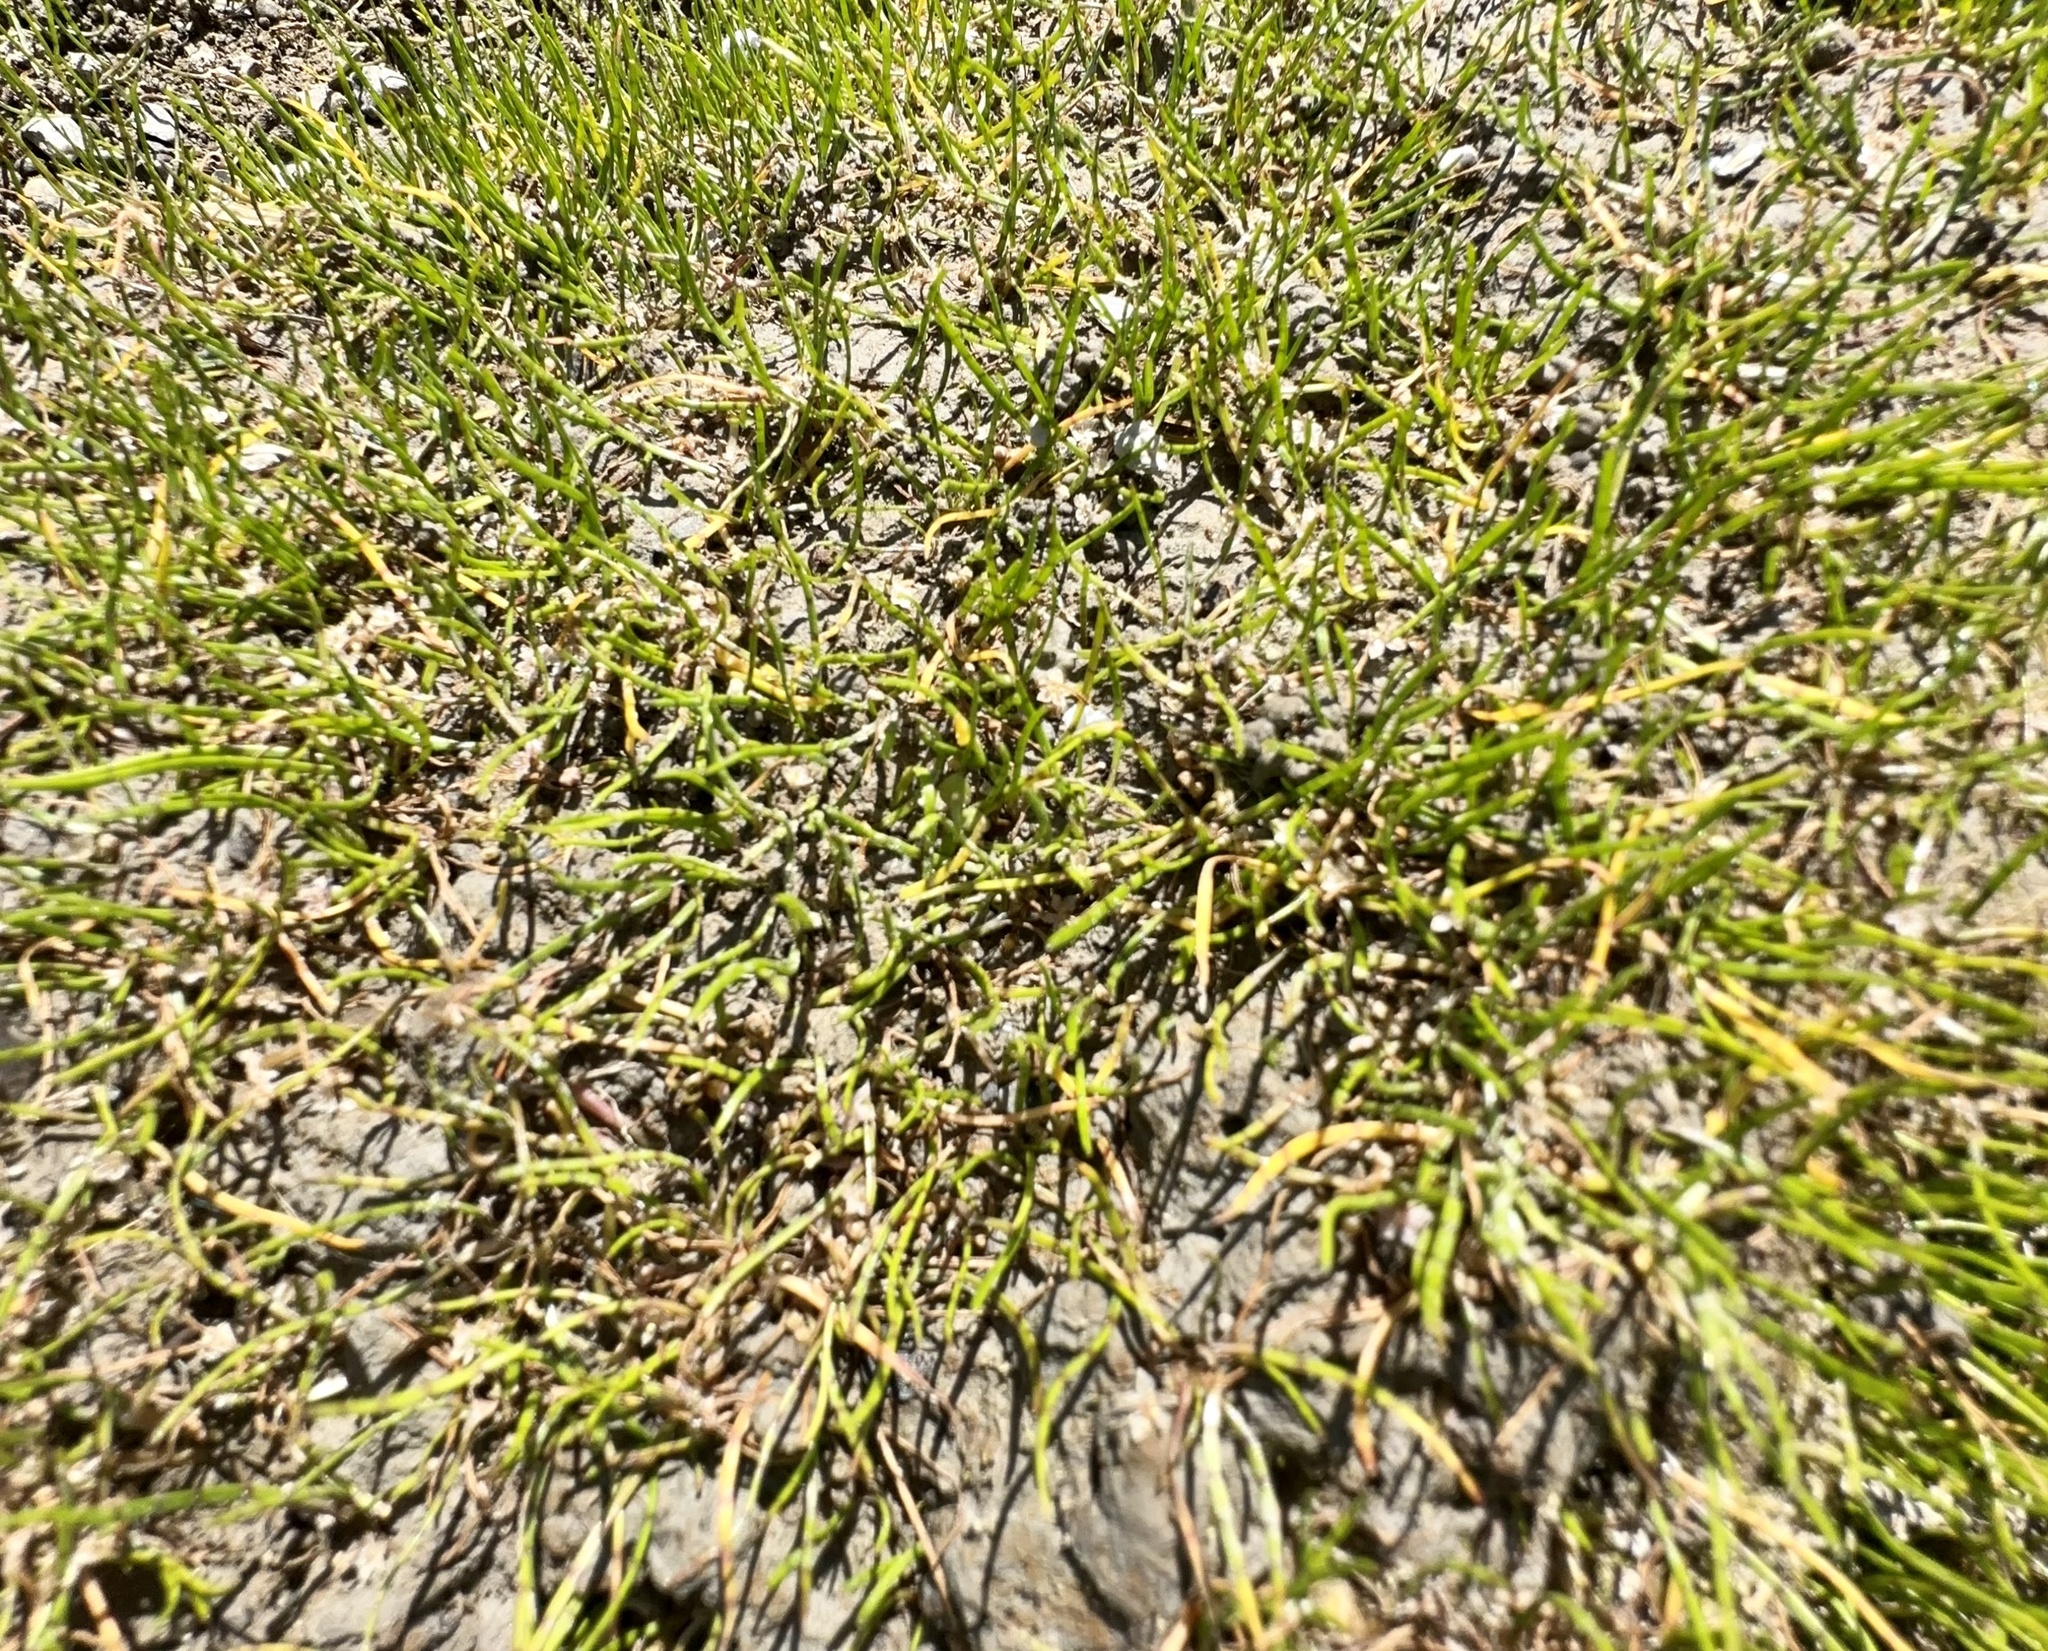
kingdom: Plantae
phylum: Tracheophyta
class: Magnoliopsida
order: Apiales
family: Apiaceae
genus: Lilaeopsis
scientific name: Lilaeopsis novae-zelandiae
